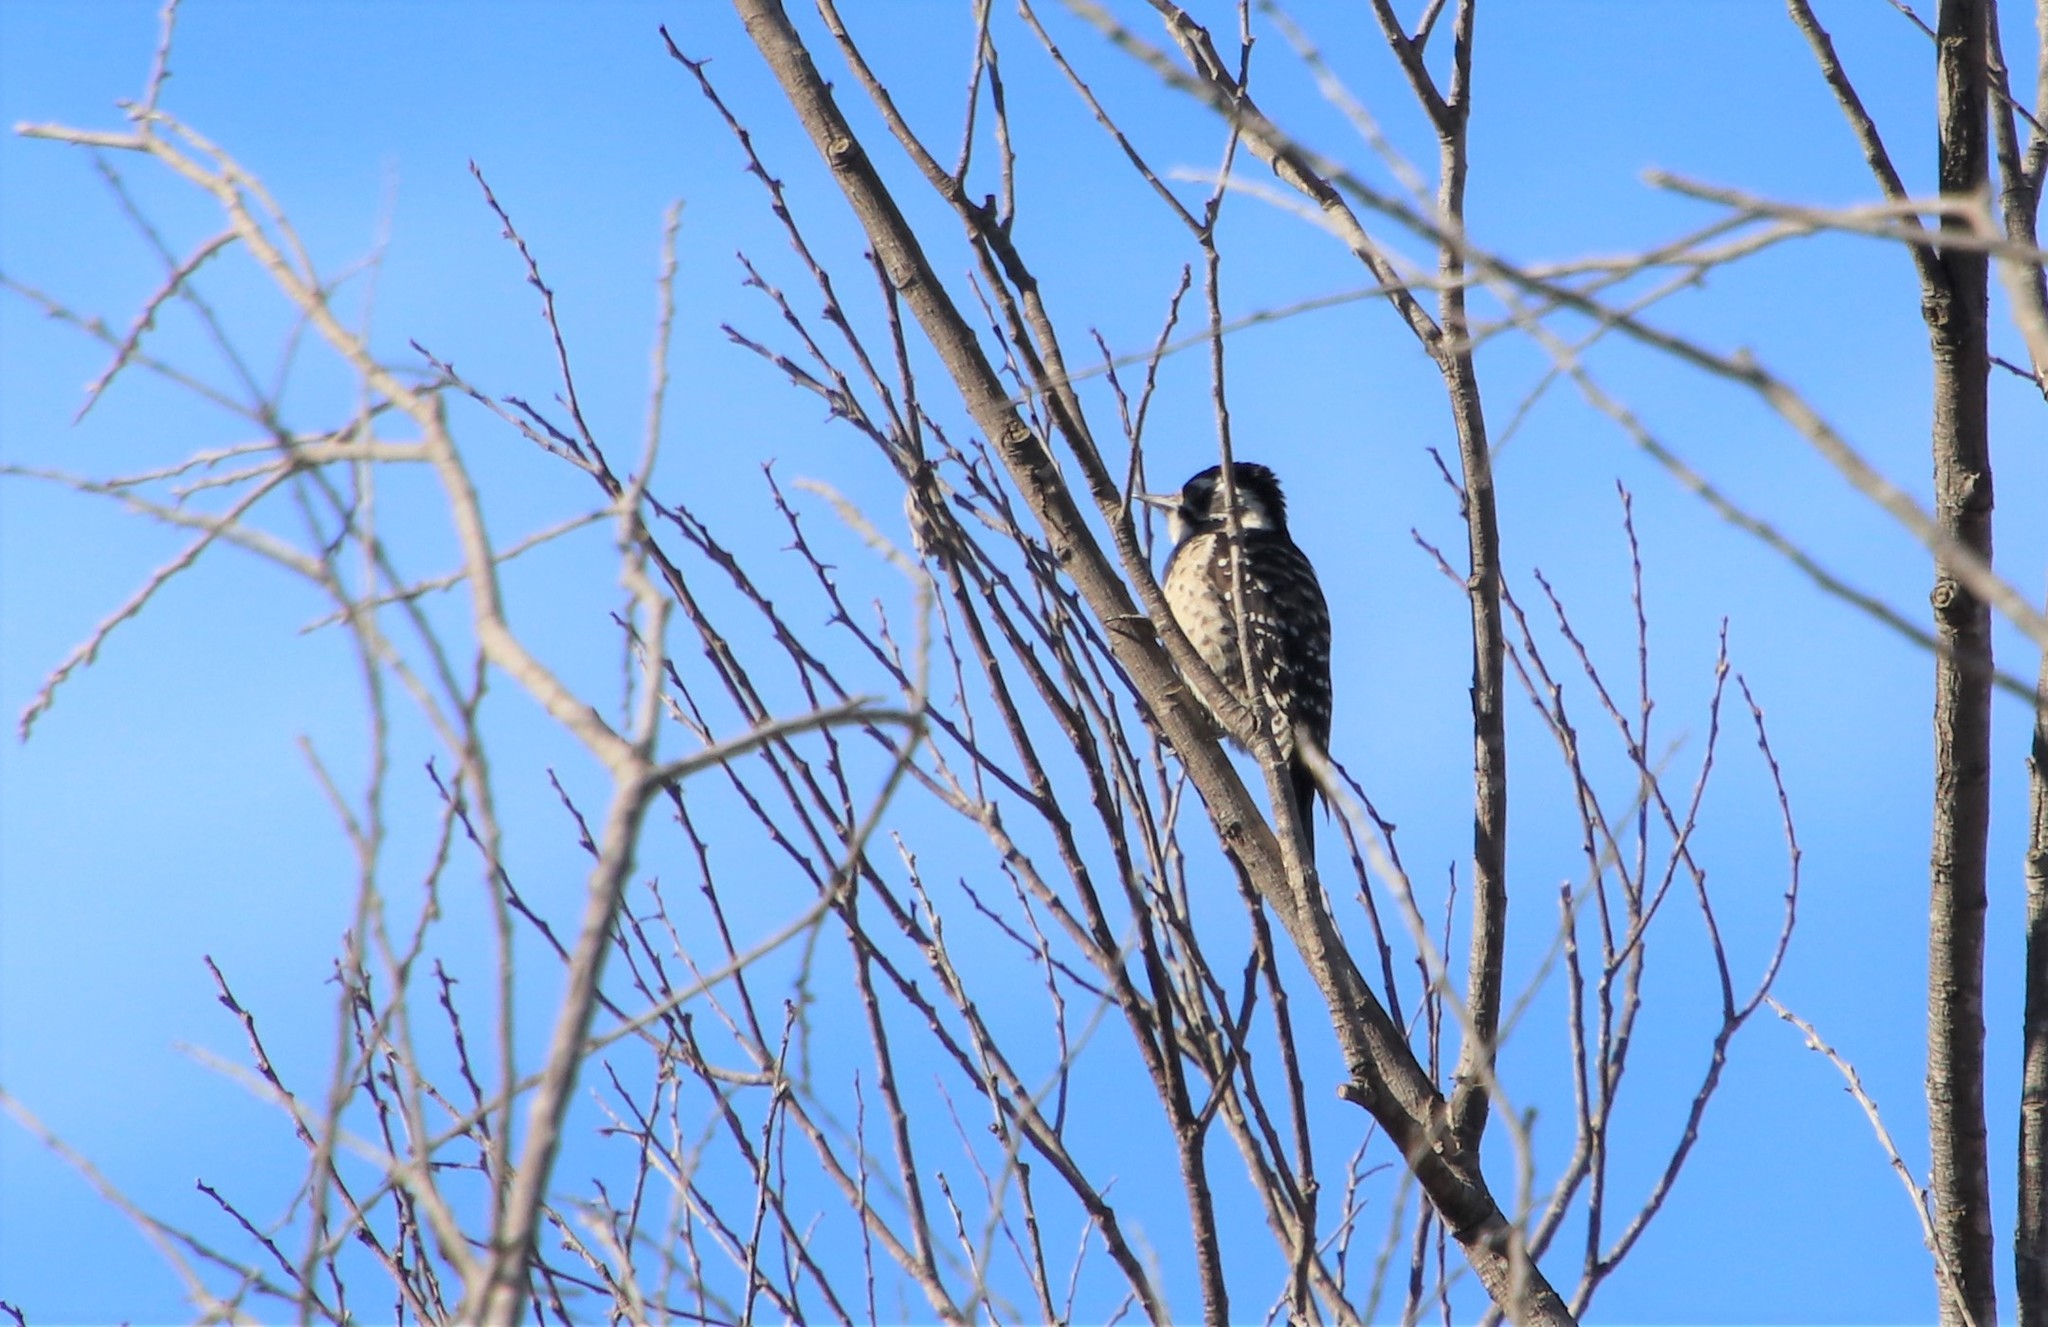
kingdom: Animalia
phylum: Chordata
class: Aves
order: Piciformes
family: Picidae
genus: Dryobates
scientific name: Dryobates nuttallii
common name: Nuttall's woodpecker
